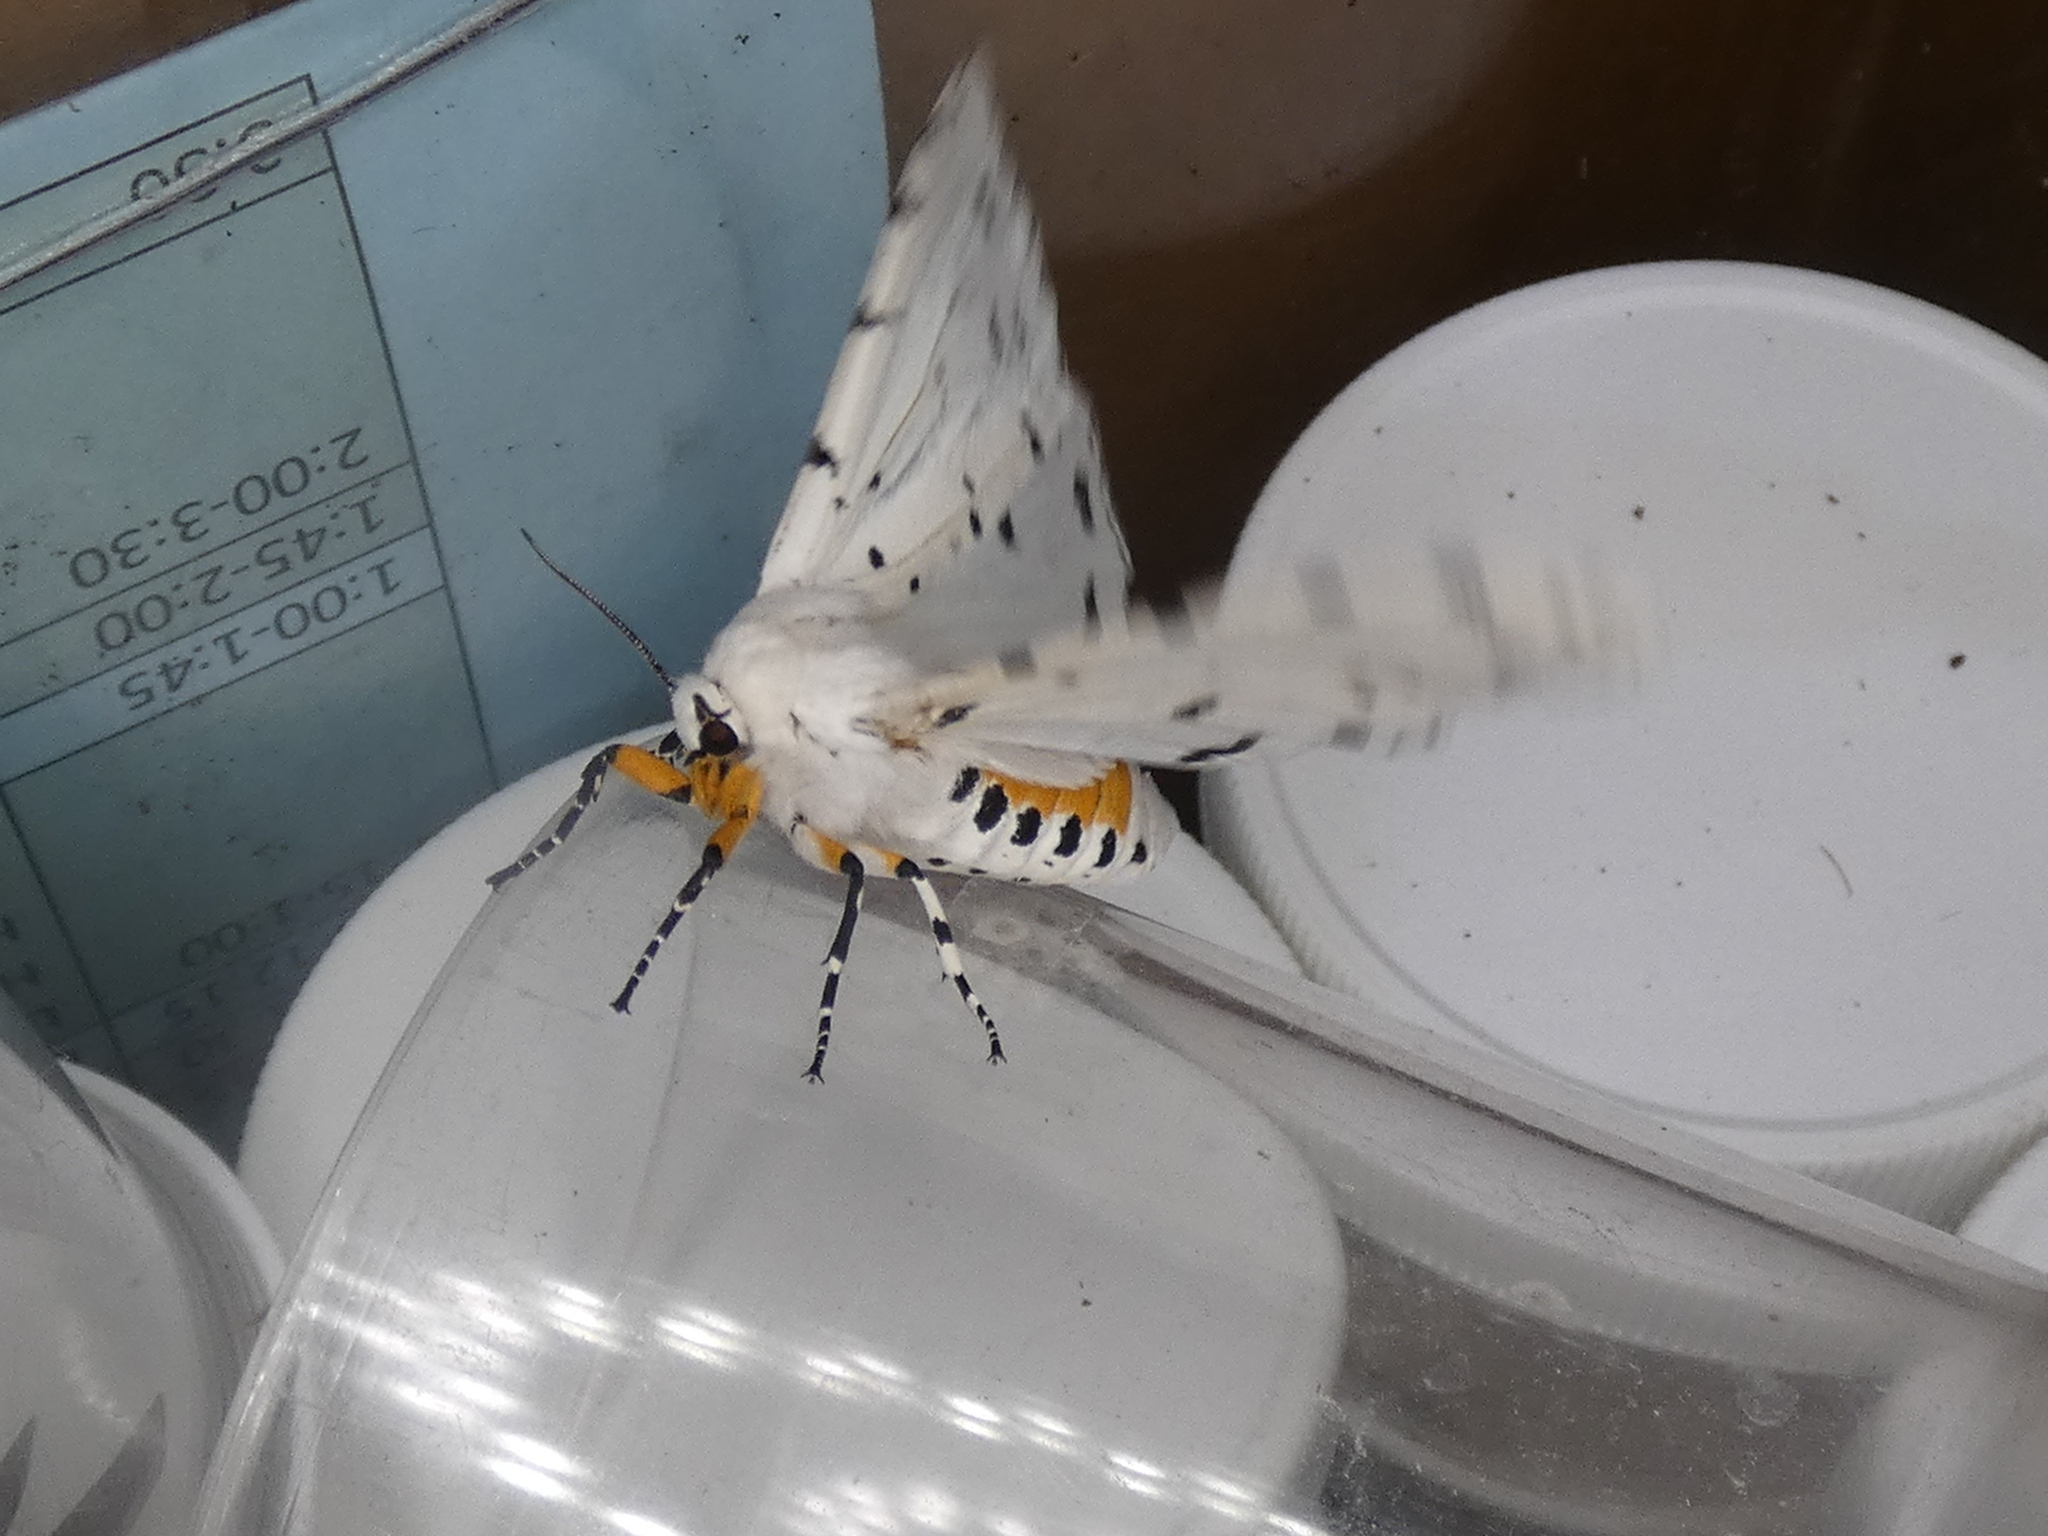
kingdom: Animalia
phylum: Arthropoda
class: Insecta
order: Lepidoptera
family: Erebidae
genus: Estigmene
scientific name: Estigmene acrea
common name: Salt marsh moth
